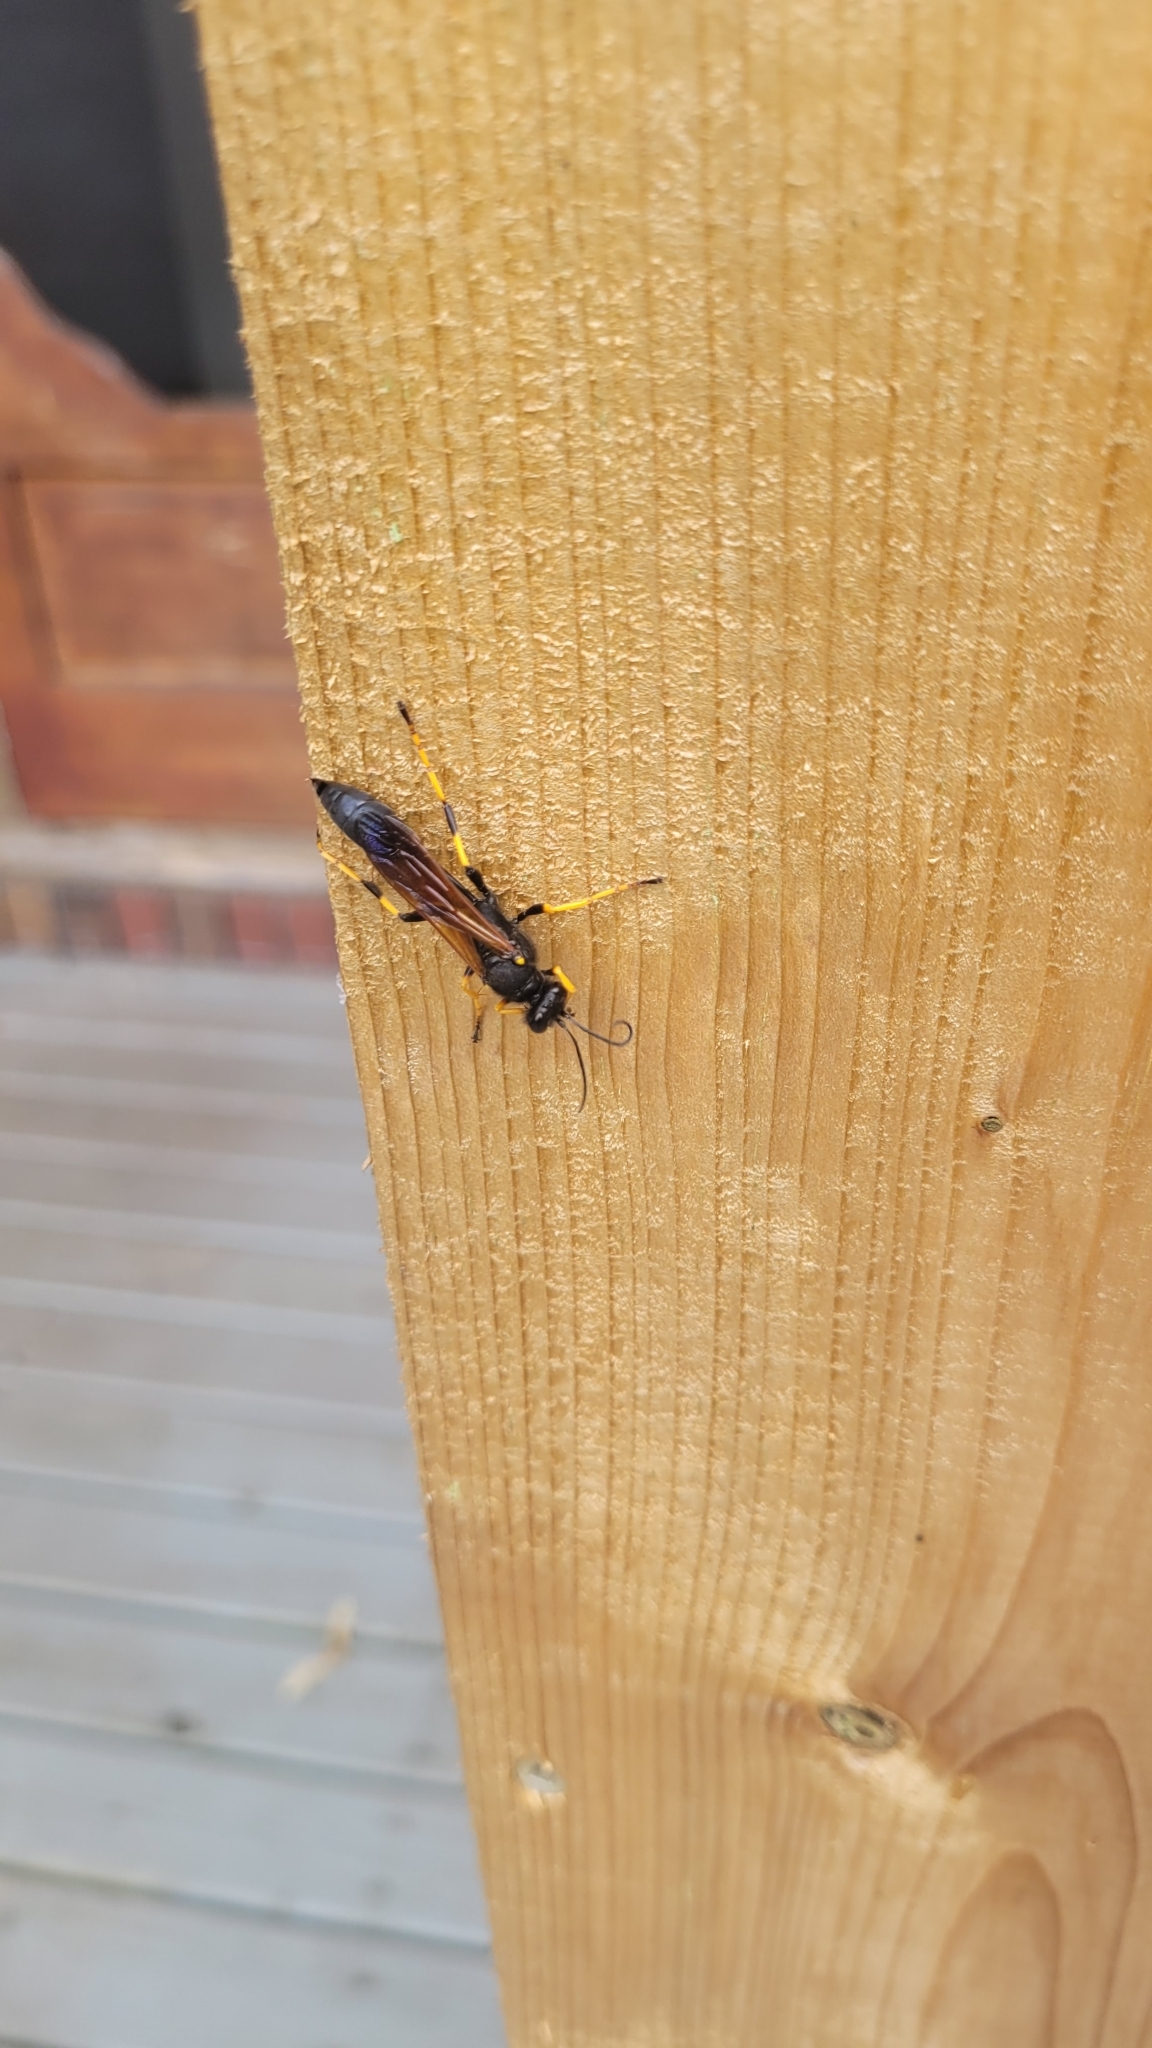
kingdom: Animalia
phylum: Arthropoda
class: Insecta
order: Hymenoptera
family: Sphecidae
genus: Sceliphron
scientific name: Sceliphron caementarium
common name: Mud dauber
